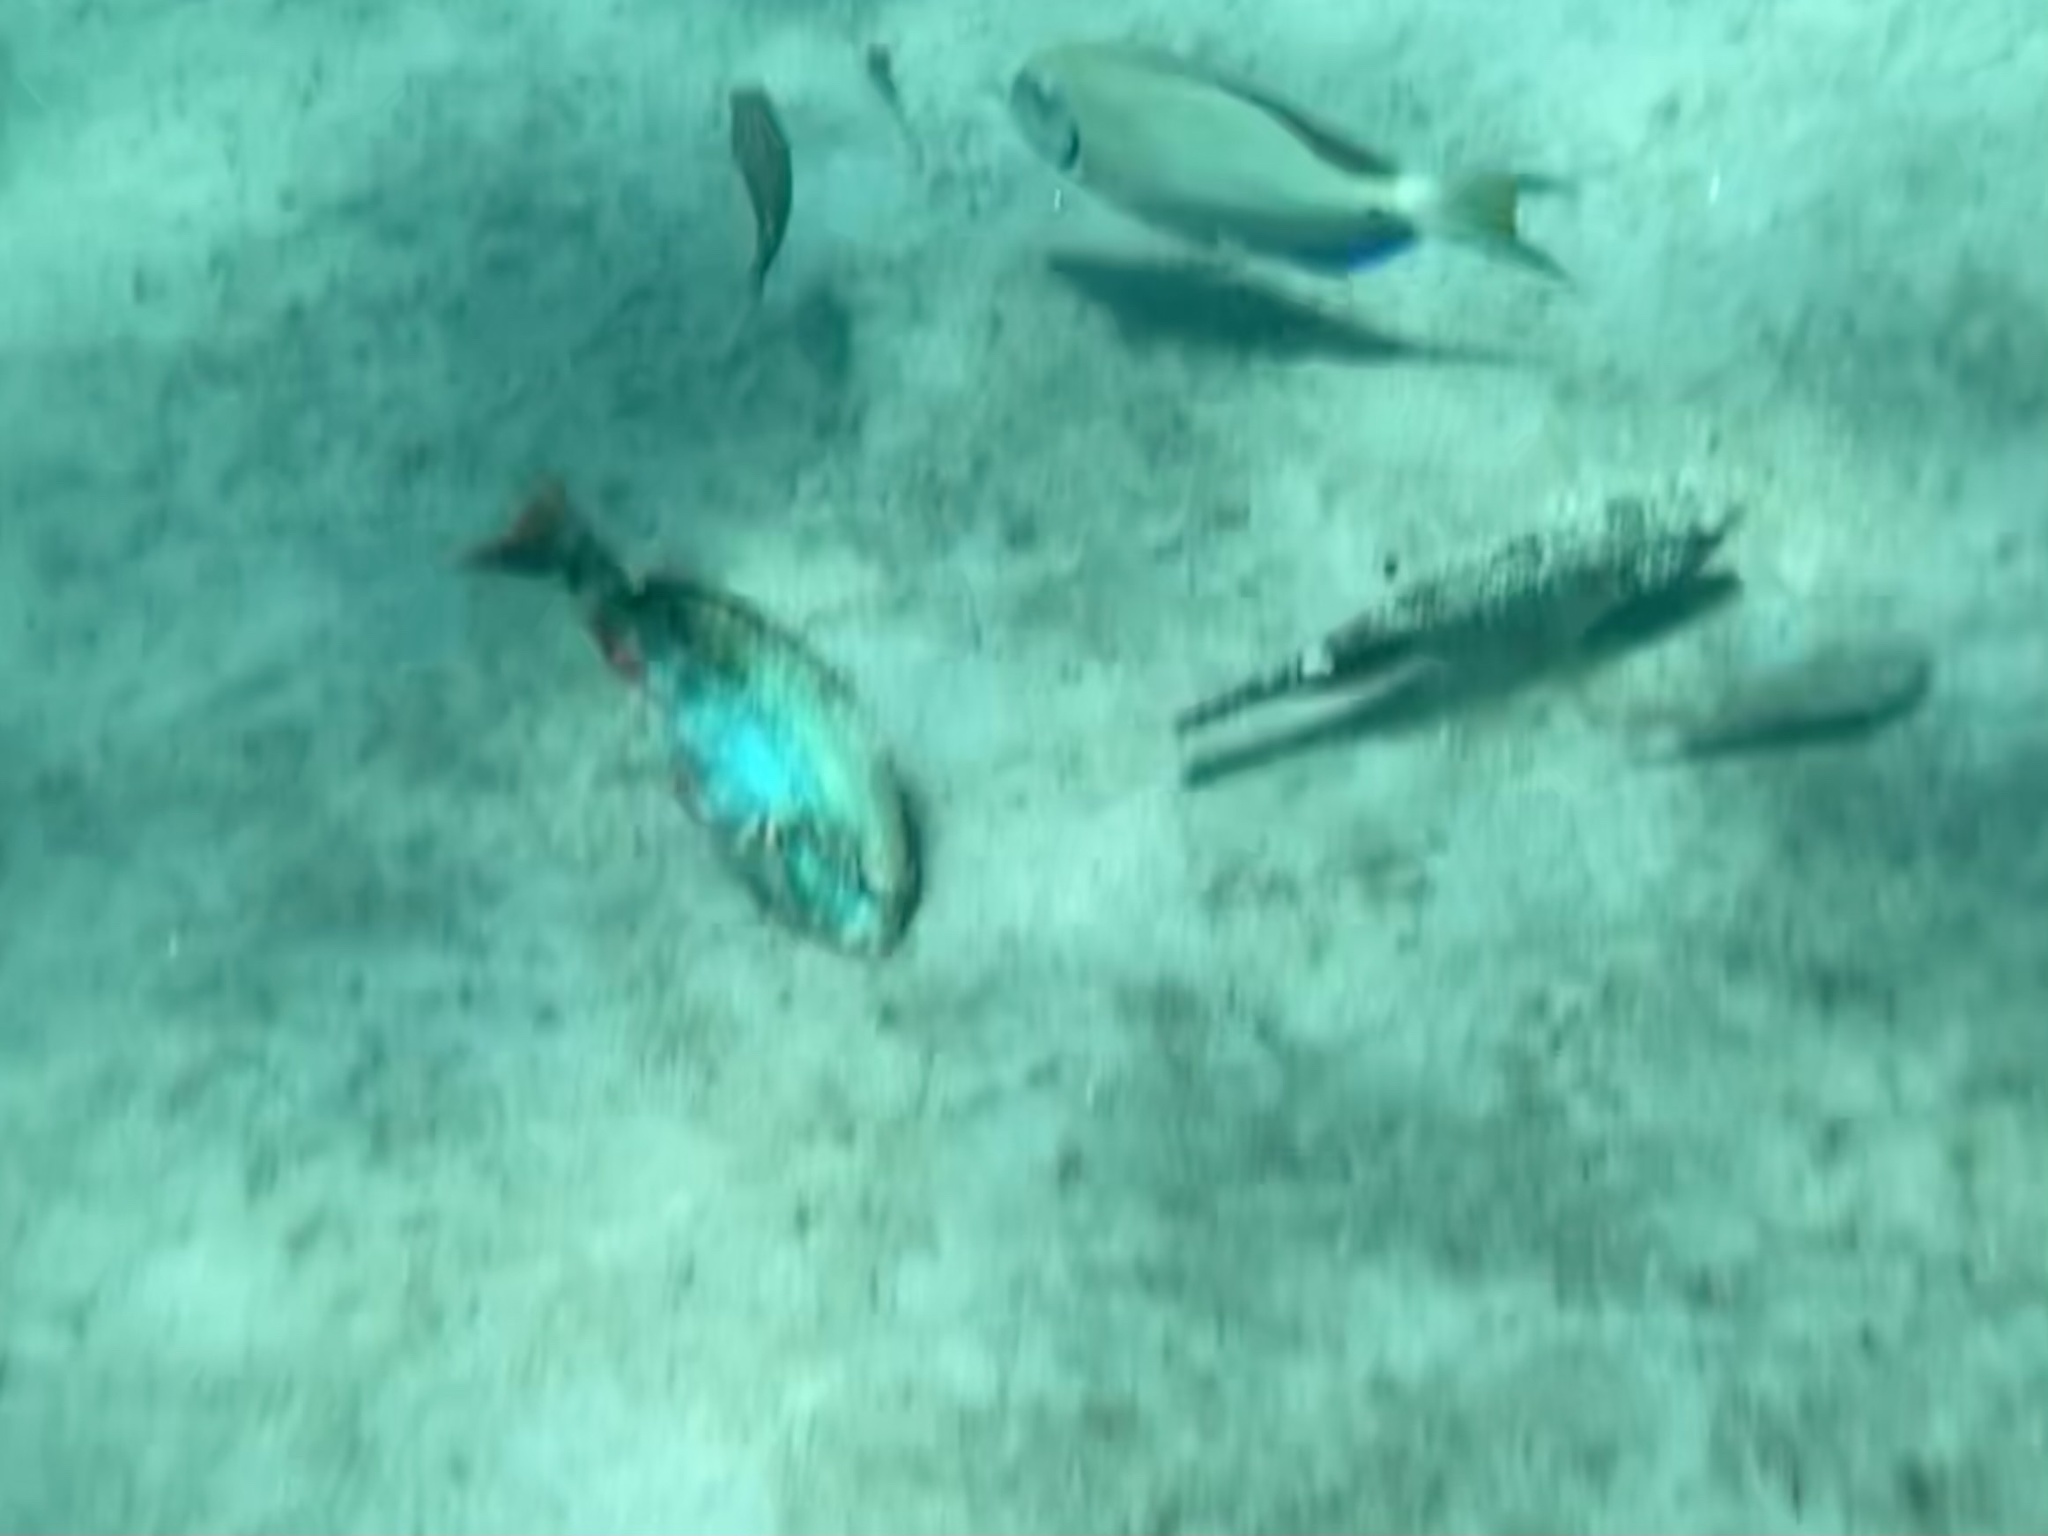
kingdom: Animalia
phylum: Chordata
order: Perciformes
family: Scaridae
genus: Sparisoma
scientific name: Sparisoma aurofrenatum
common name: Redband parrotfish
